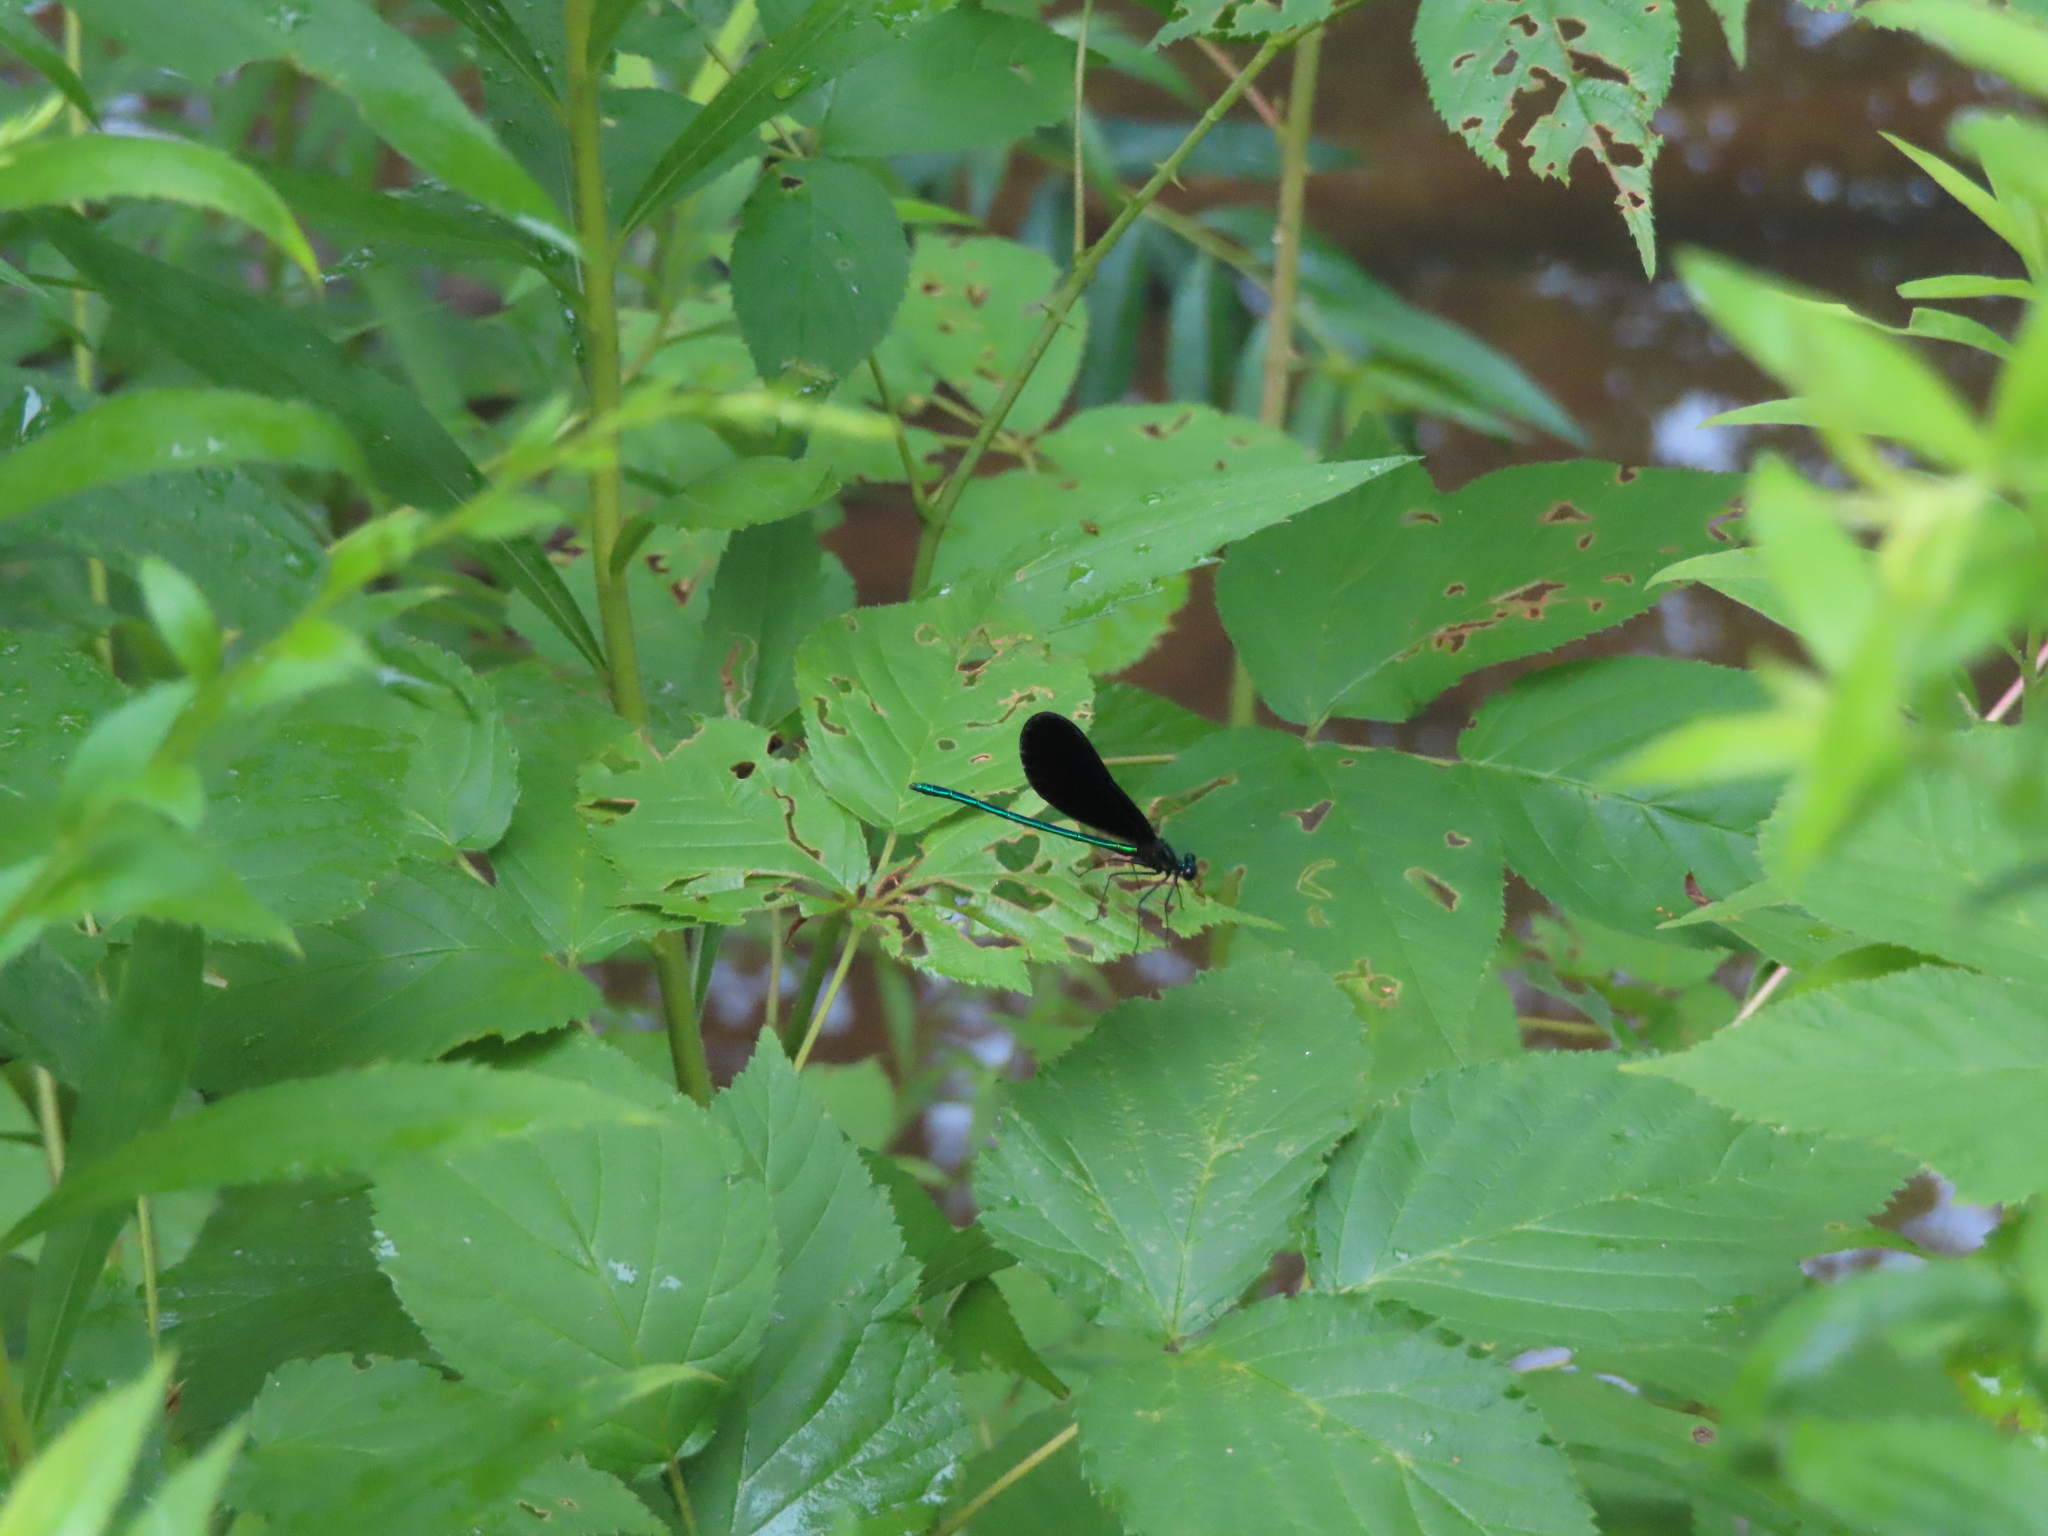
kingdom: Animalia
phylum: Arthropoda
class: Insecta
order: Odonata
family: Calopterygidae
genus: Calopteryx
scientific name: Calopteryx maculata
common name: Ebony jewelwing
